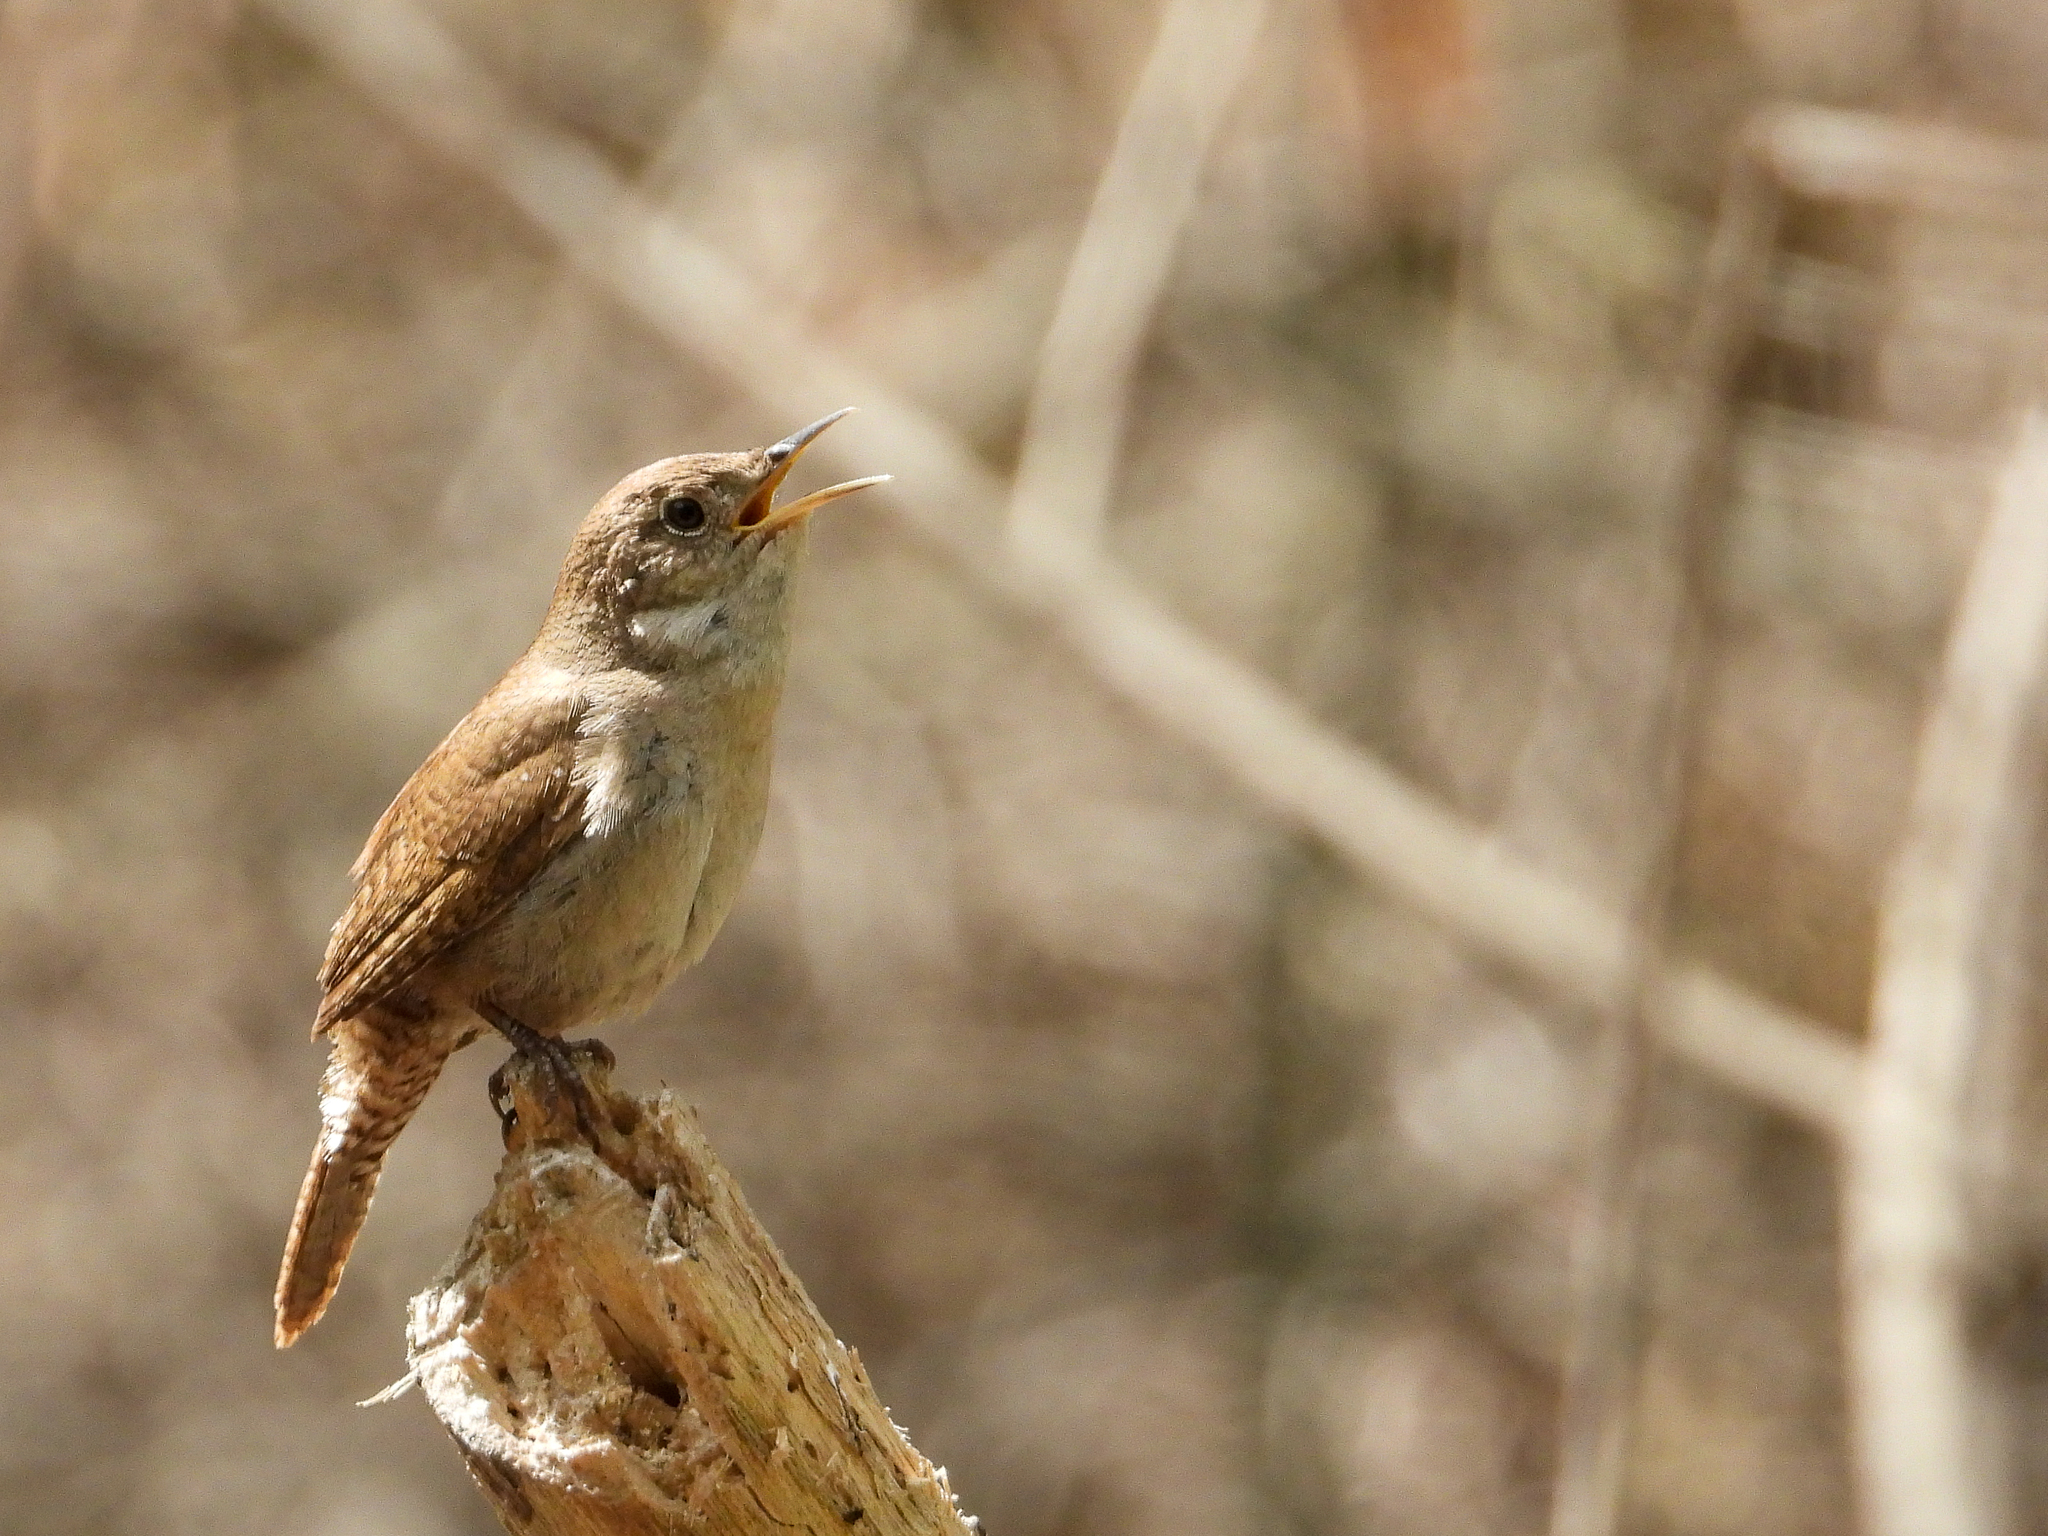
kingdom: Animalia
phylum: Chordata
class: Aves
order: Passeriformes
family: Troglodytidae
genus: Troglodytes
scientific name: Troglodytes aedon
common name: House wren
